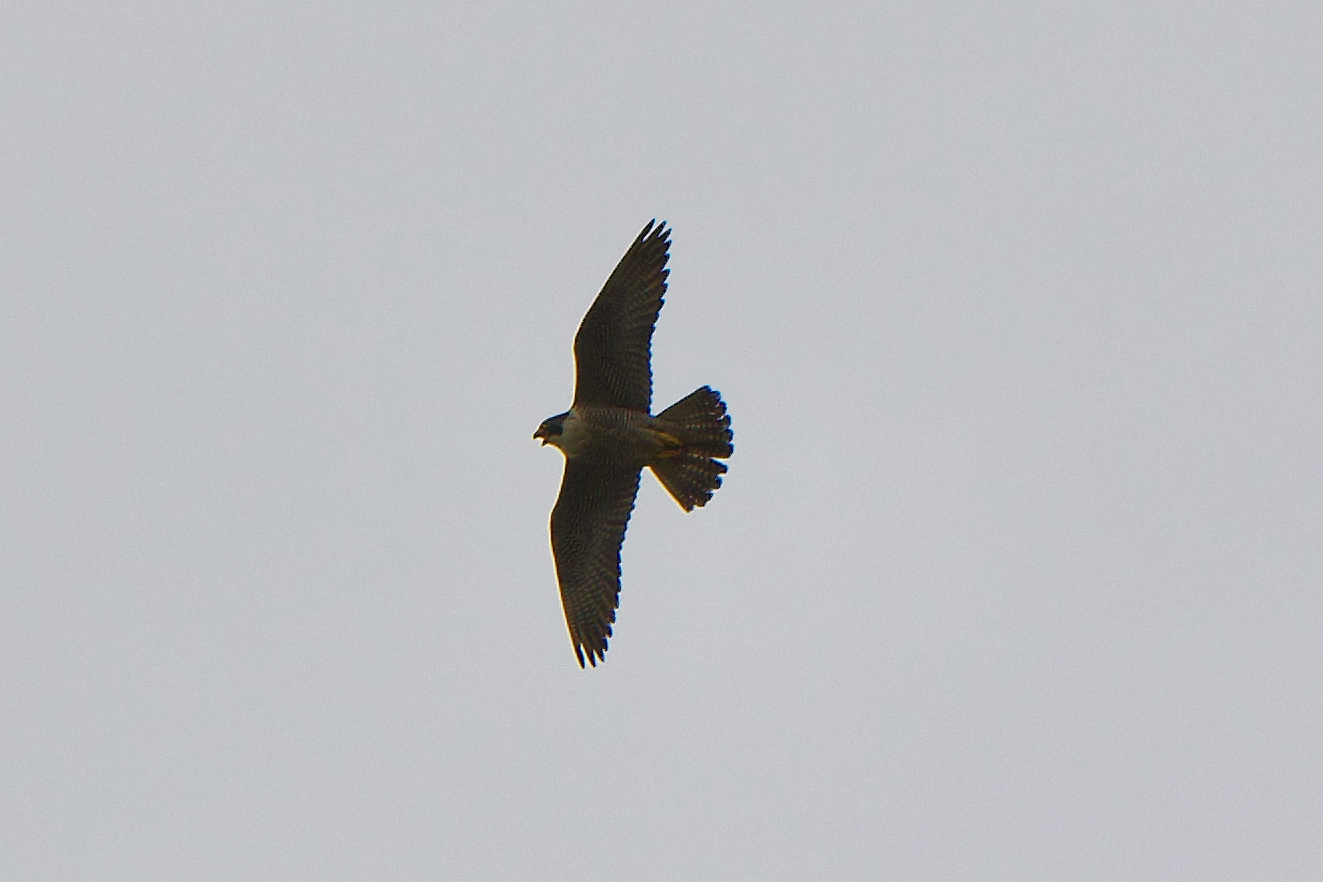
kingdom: Animalia
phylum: Chordata
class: Aves
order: Falconiformes
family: Falconidae
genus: Falco
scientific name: Falco peregrinus
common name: Peregrine falcon
